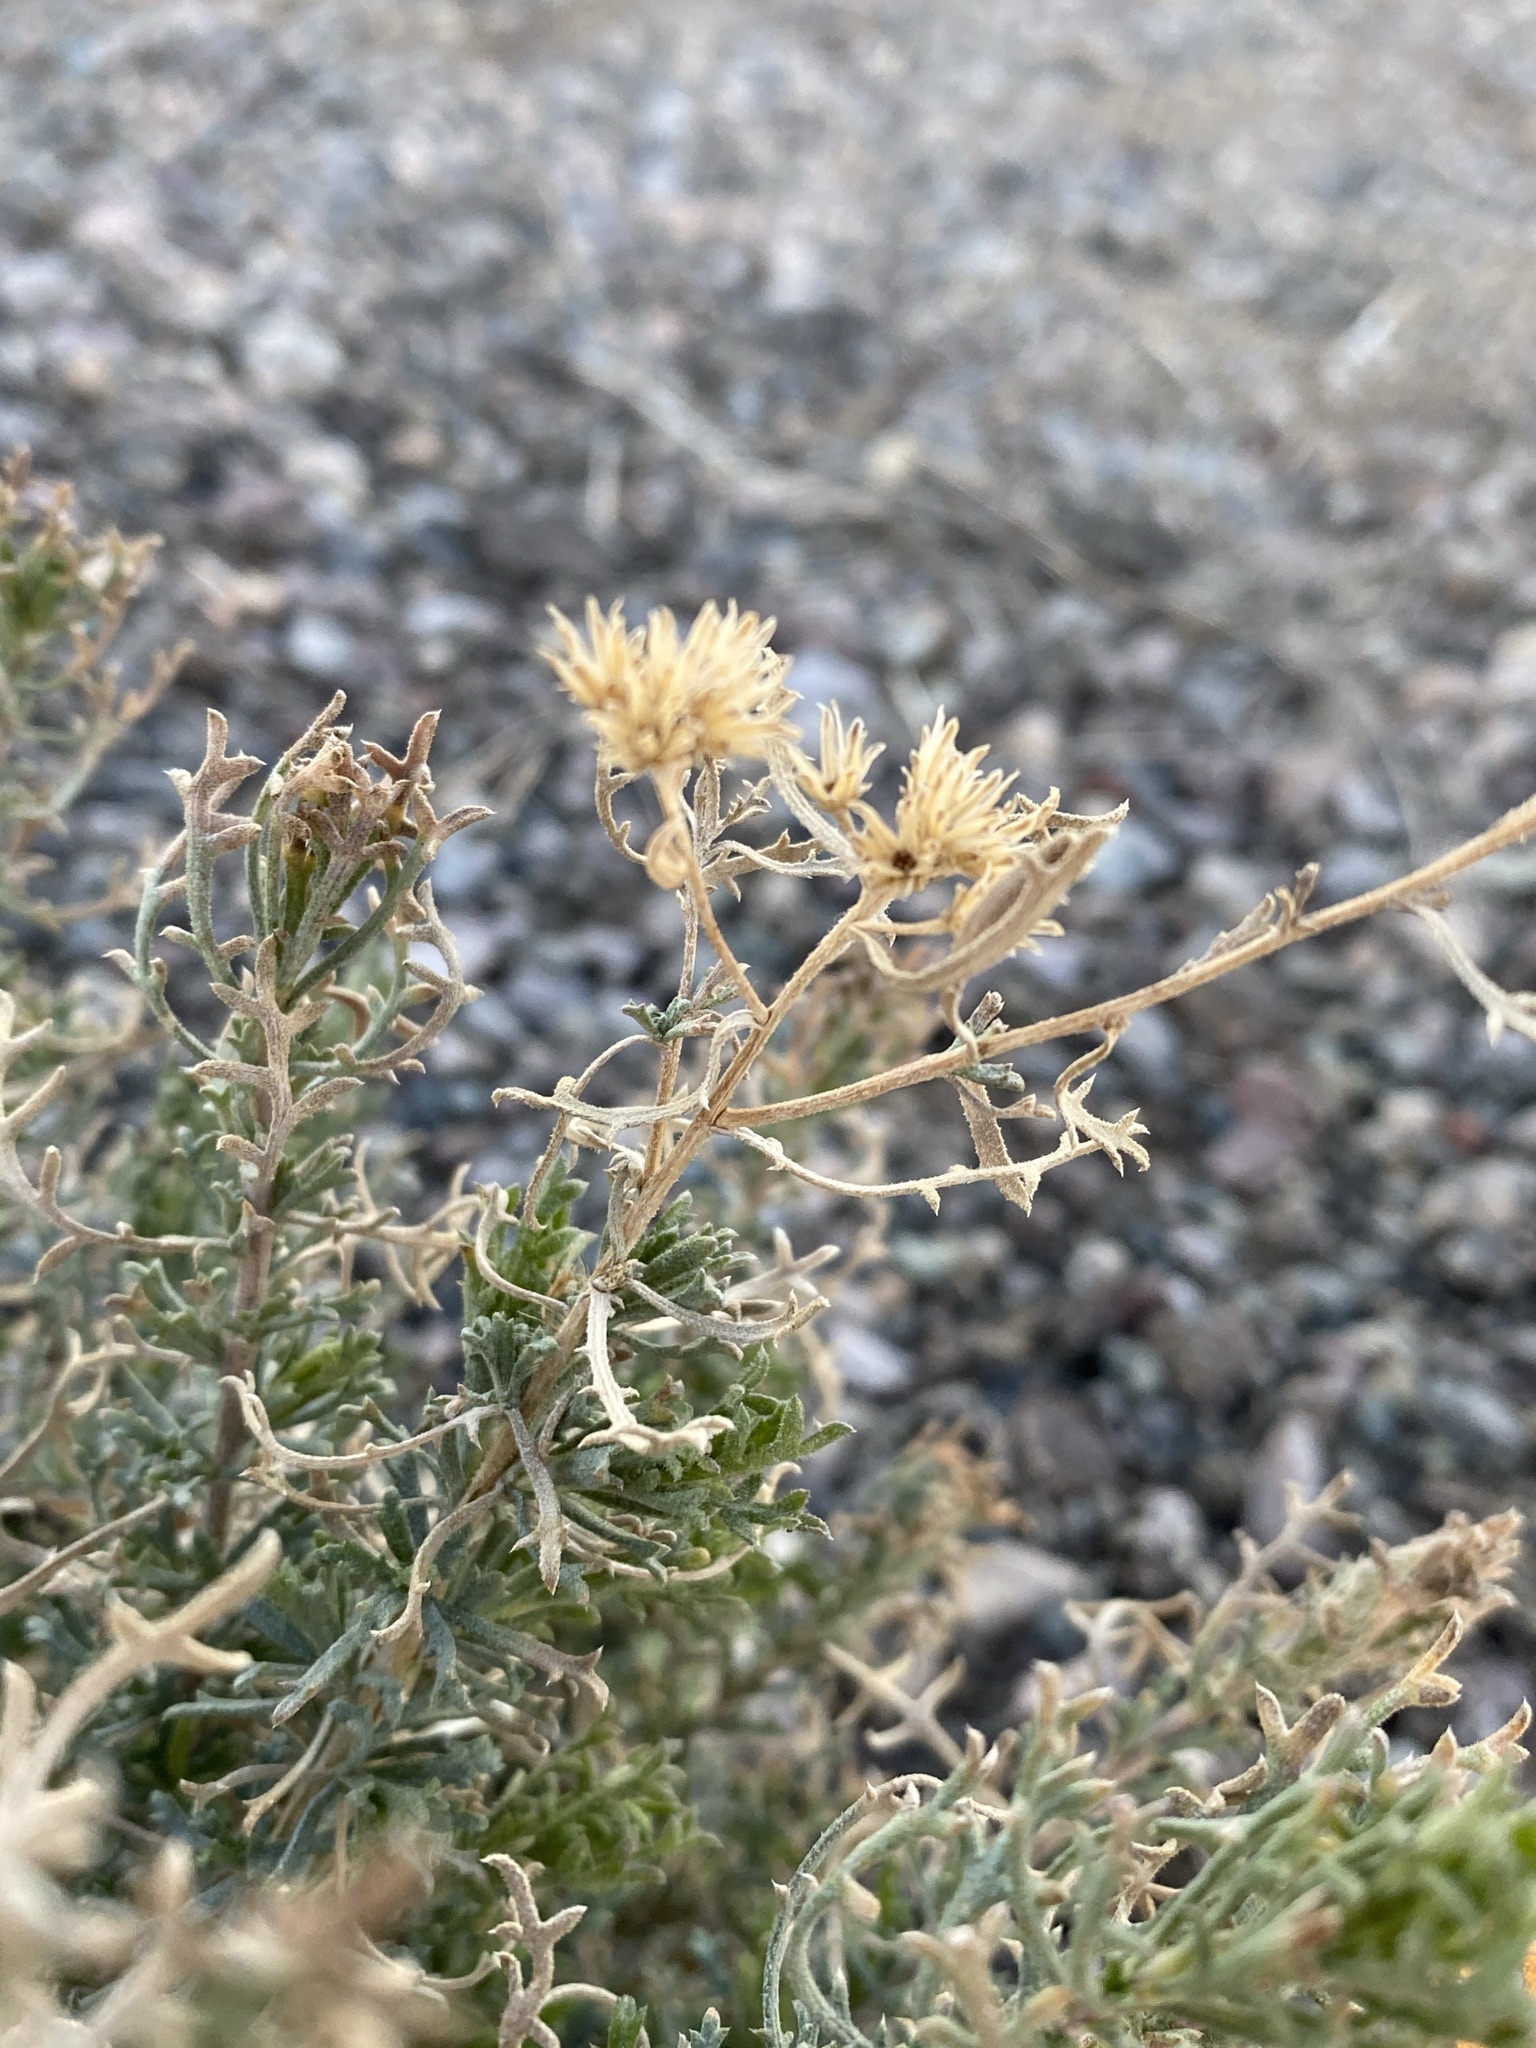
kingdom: Plantae
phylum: Tracheophyta
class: Magnoliopsida
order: Asterales
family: Asteraceae
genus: Isocoma
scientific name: Isocoma tenuisecta
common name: Burroweed
